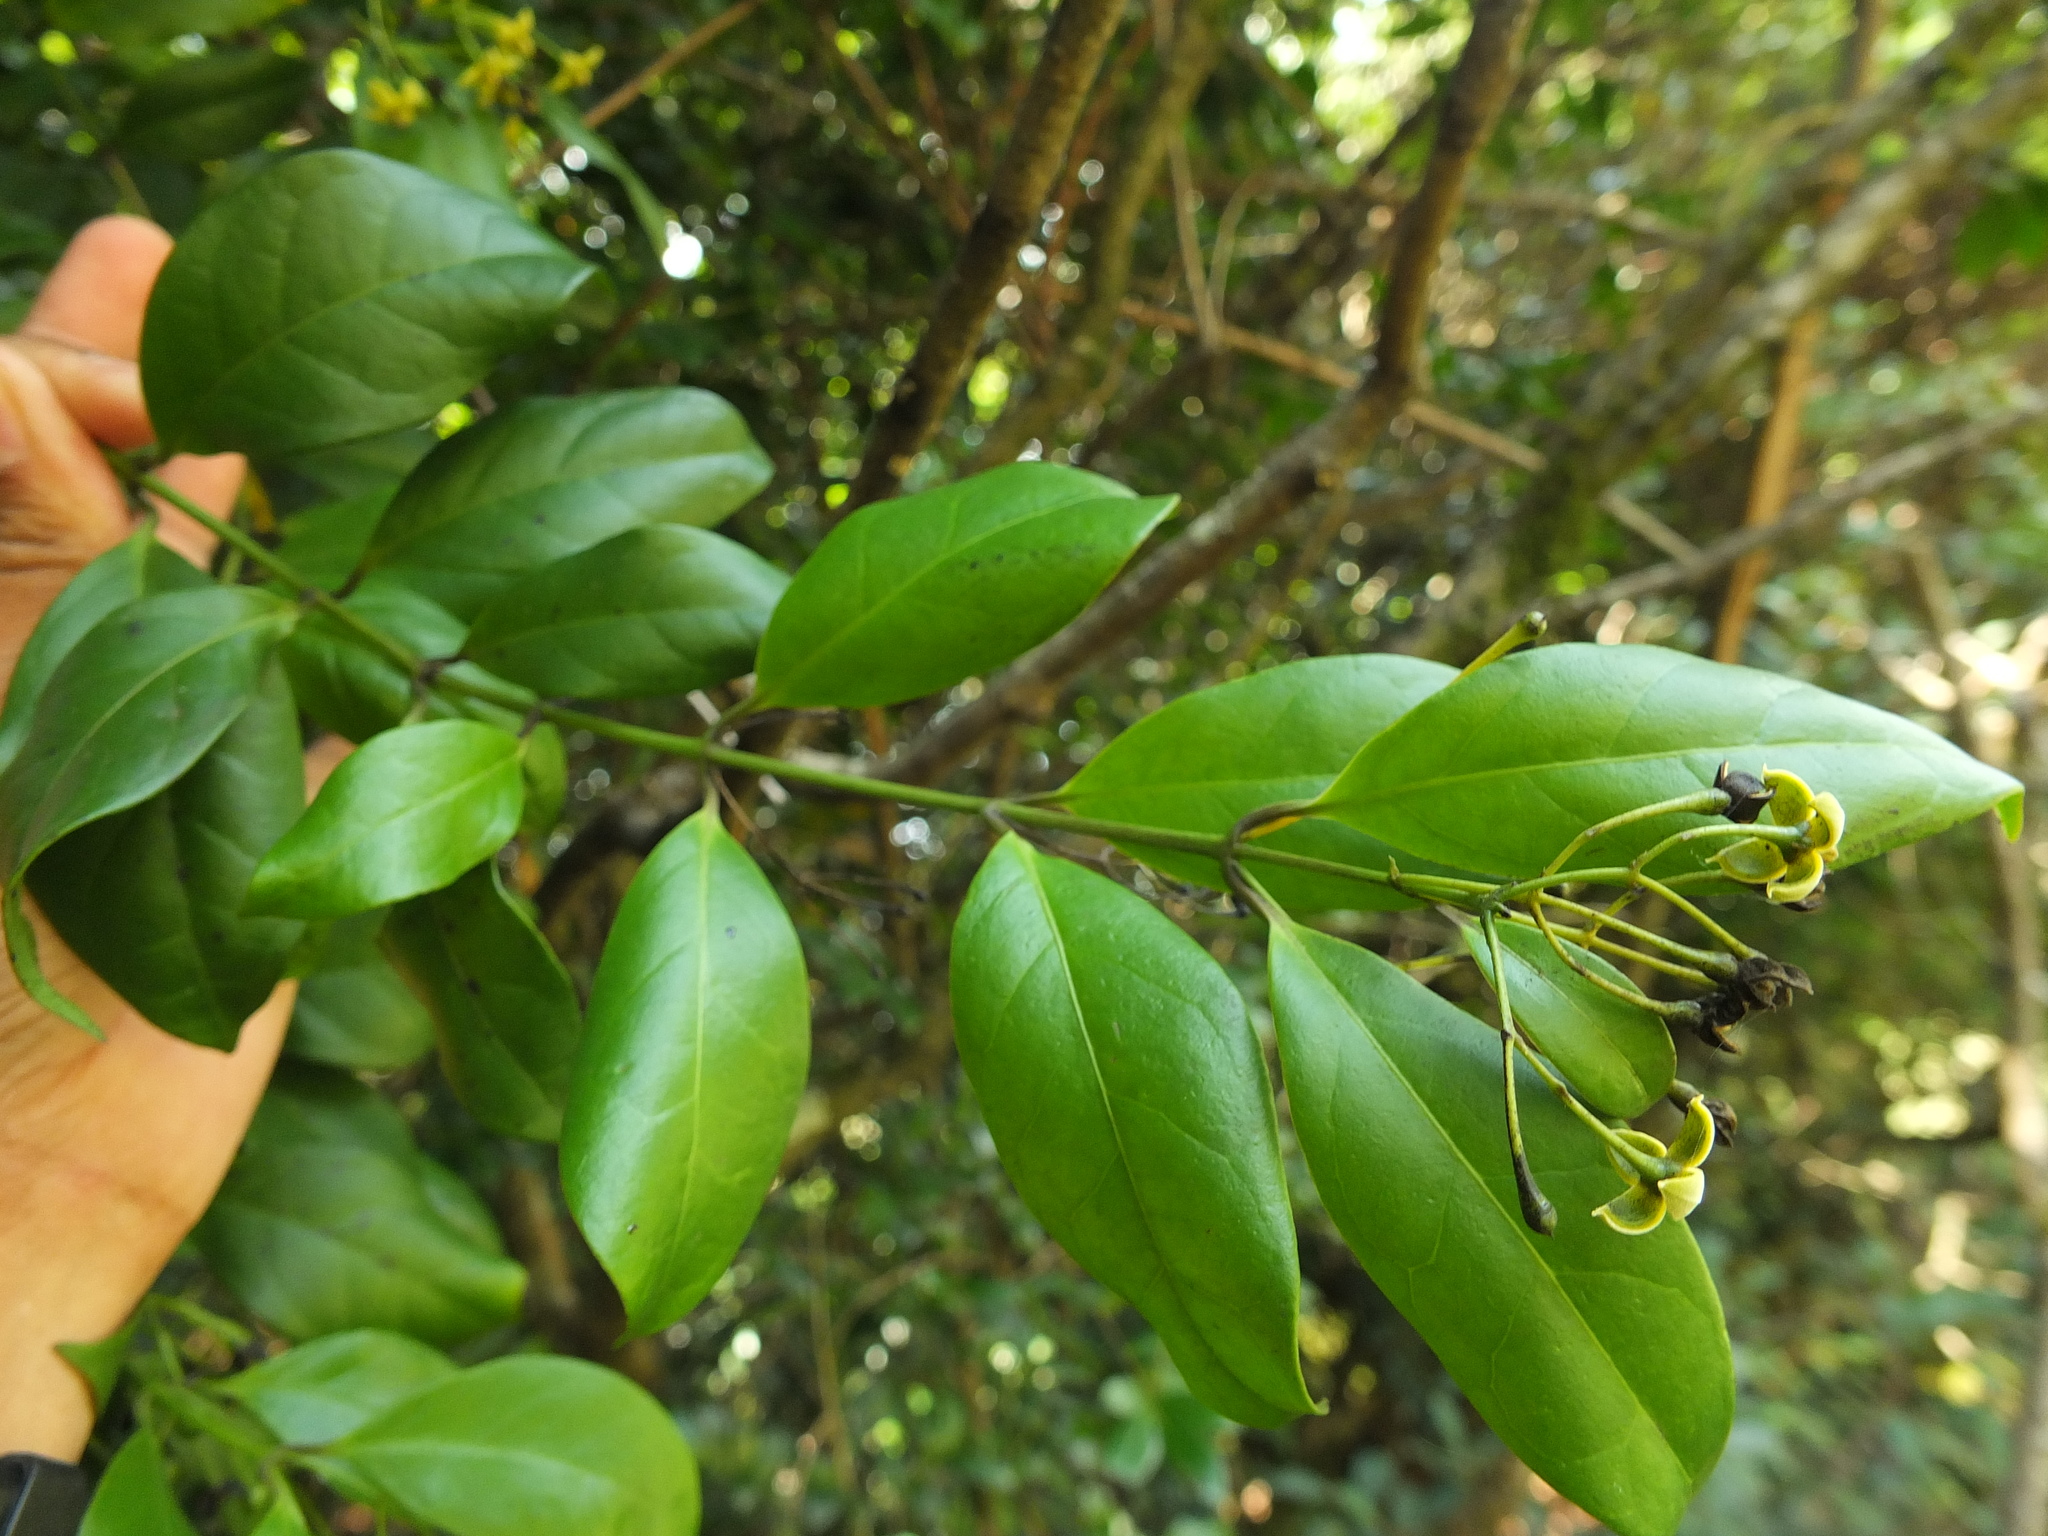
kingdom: Plantae
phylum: Tracheophyta
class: Magnoliopsida
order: Gentianales
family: Loganiaceae
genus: Gardneria
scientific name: Gardneria ovata
